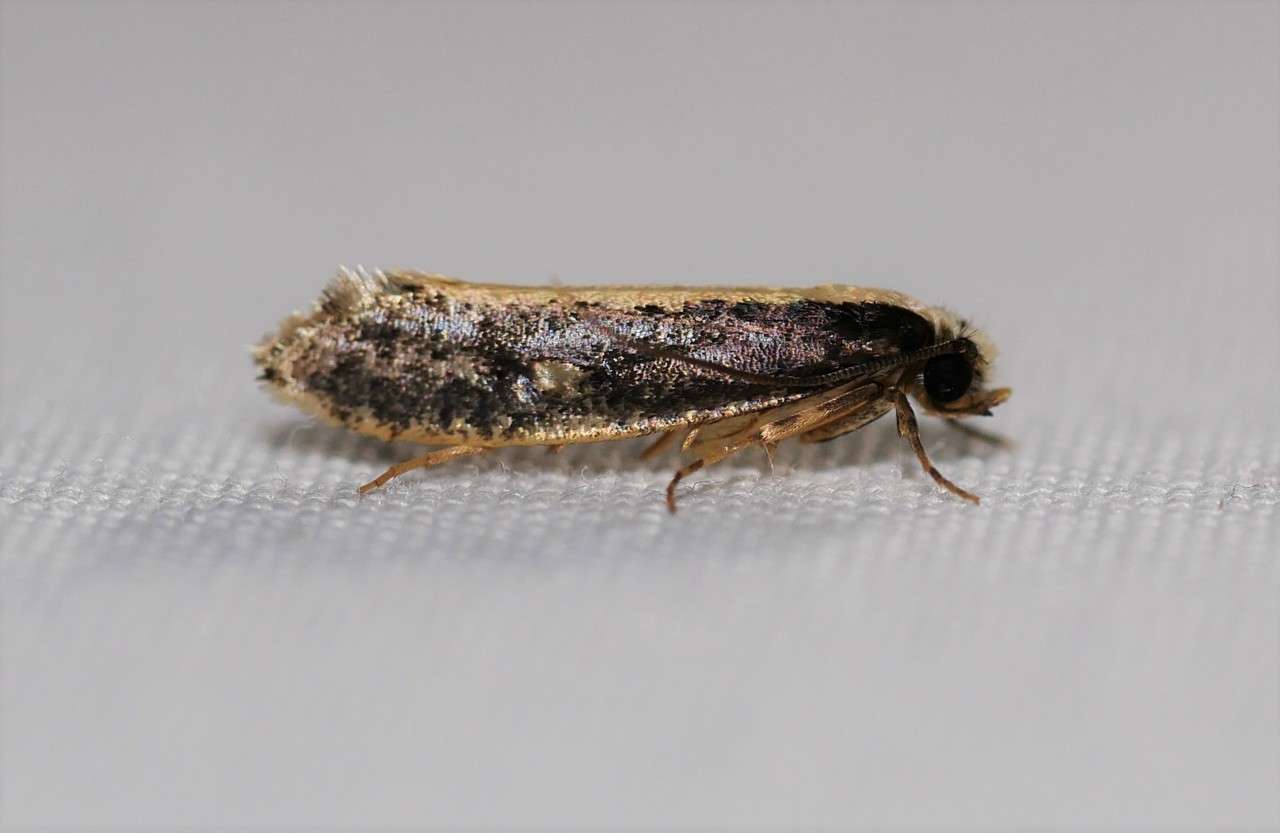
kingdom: Animalia
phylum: Arthropoda
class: Insecta
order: Lepidoptera
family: Tineidae
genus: Monopis
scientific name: Monopis ethelella
